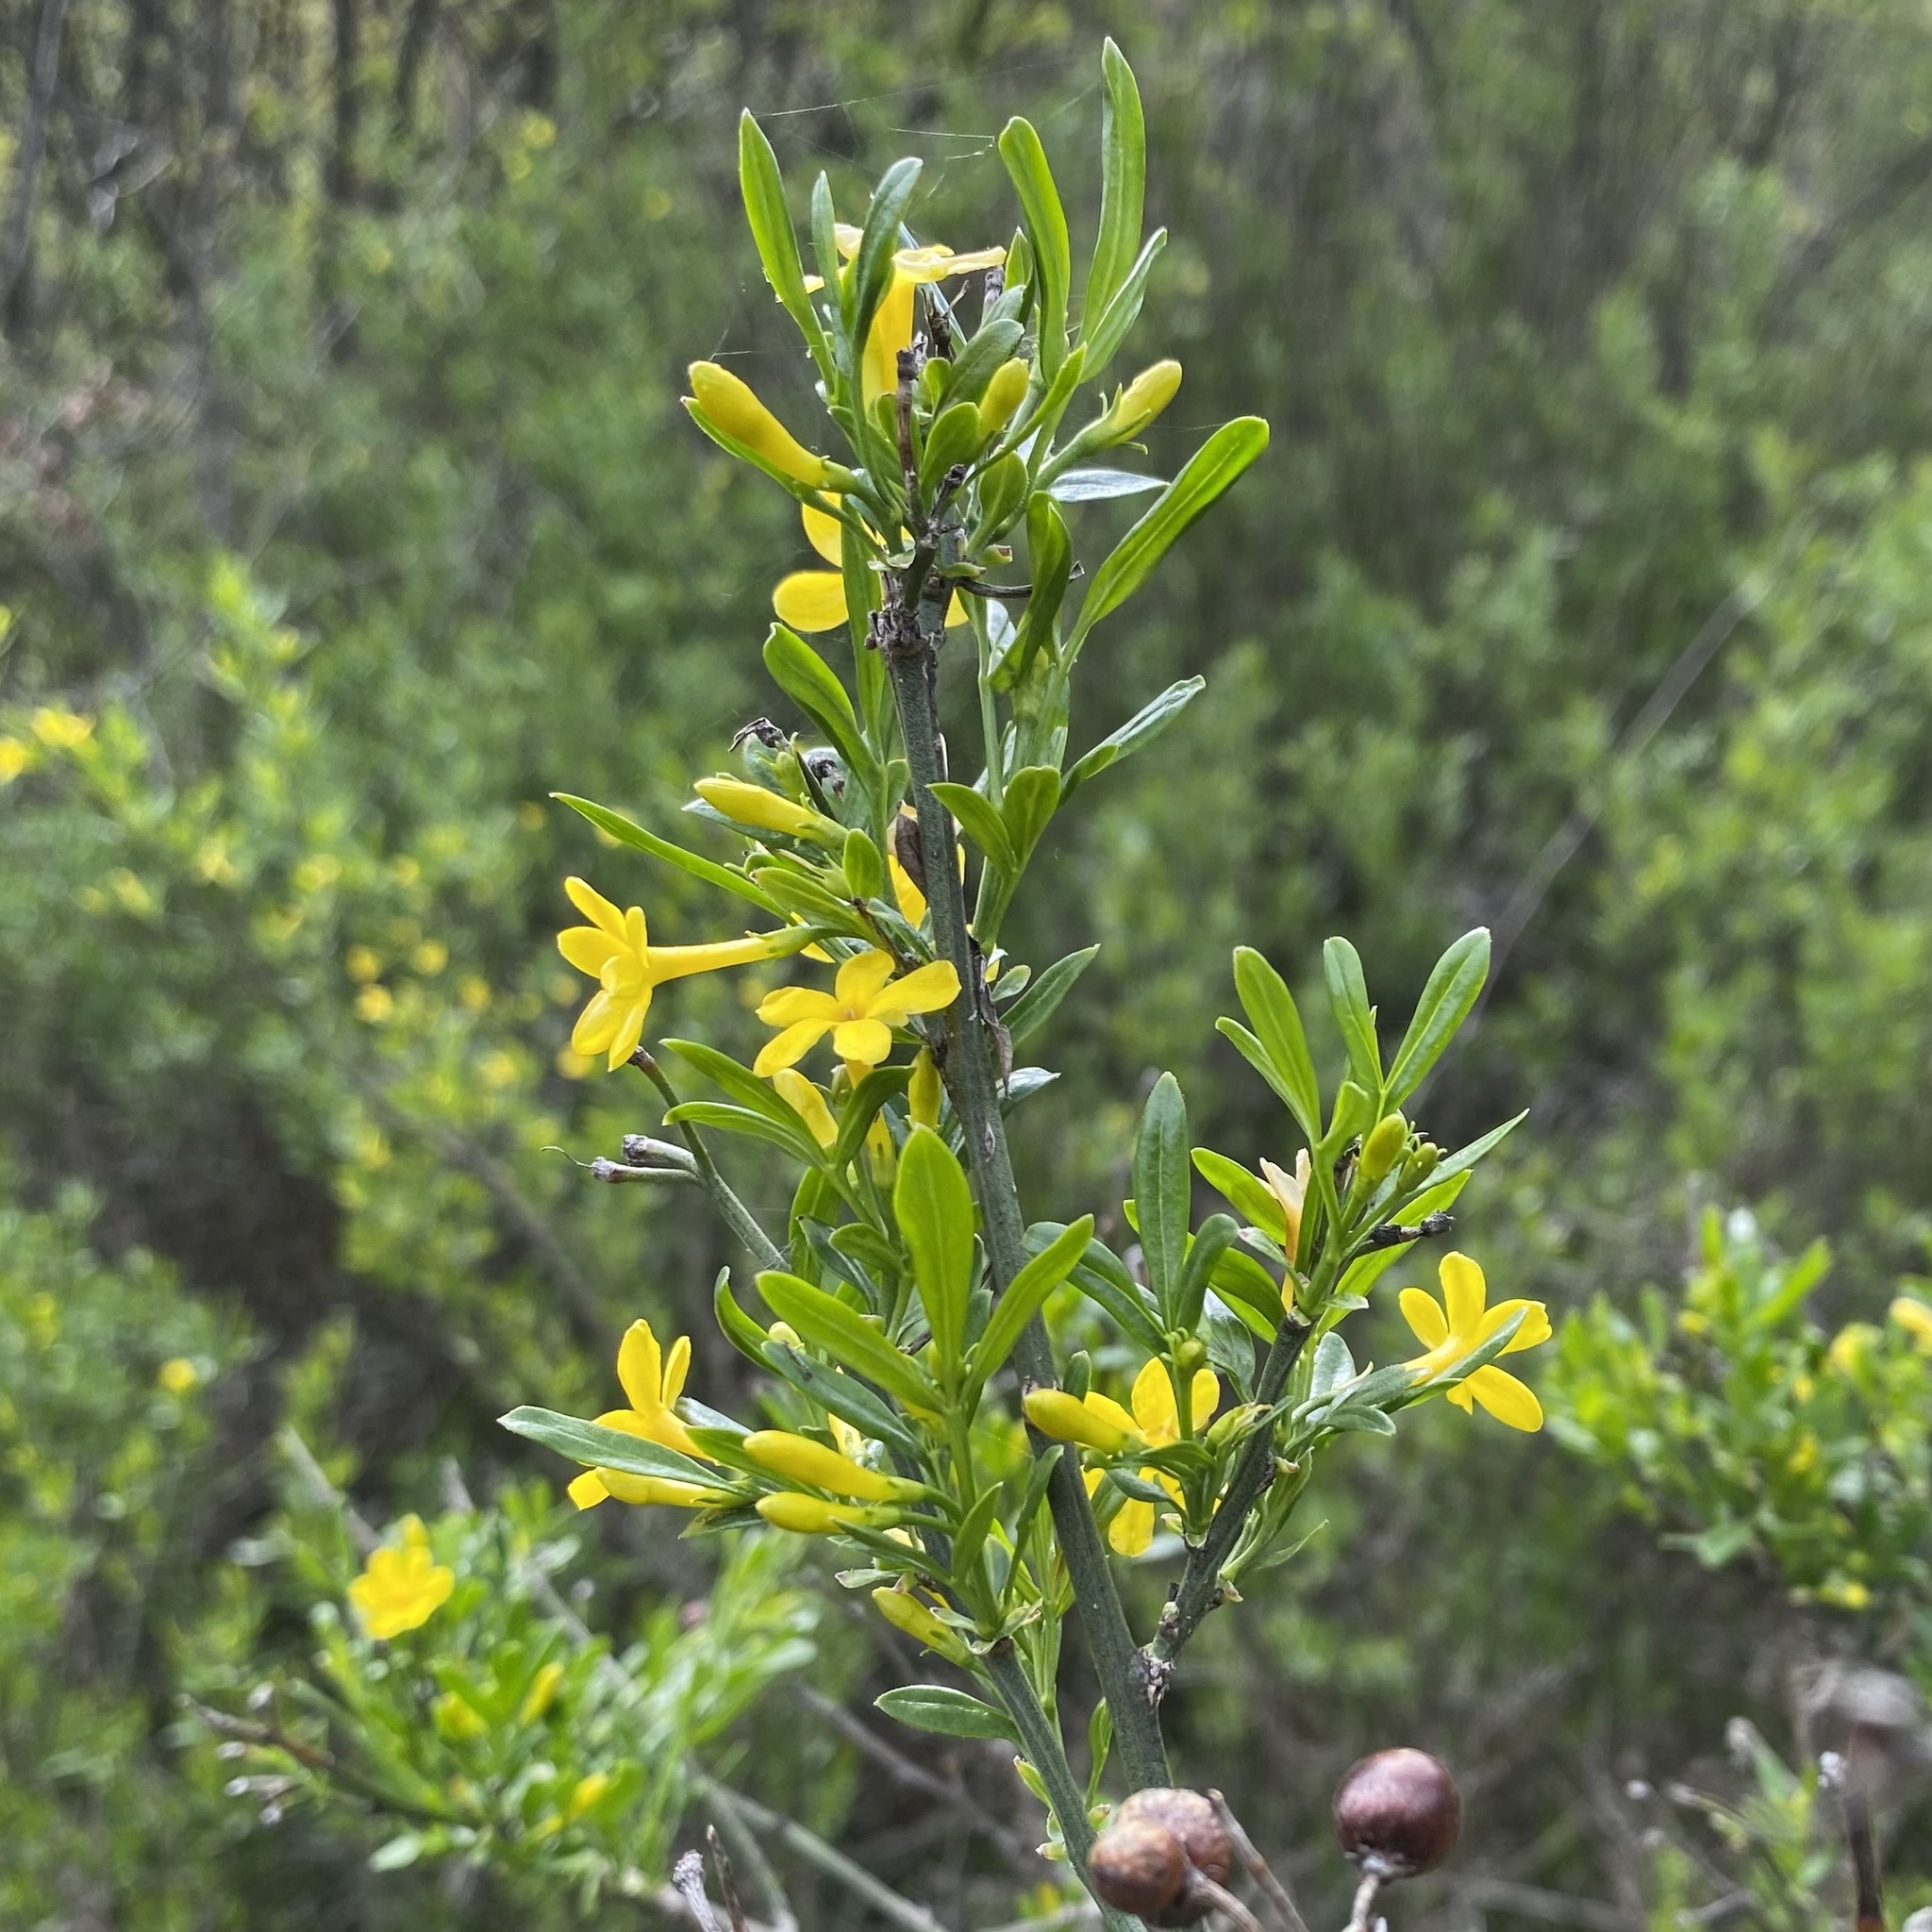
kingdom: Plantae
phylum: Tracheophyta
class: Magnoliopsida
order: Lamiales
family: Oleaceae
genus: Chrysojasminum
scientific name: Chrysojasminum fruticans
